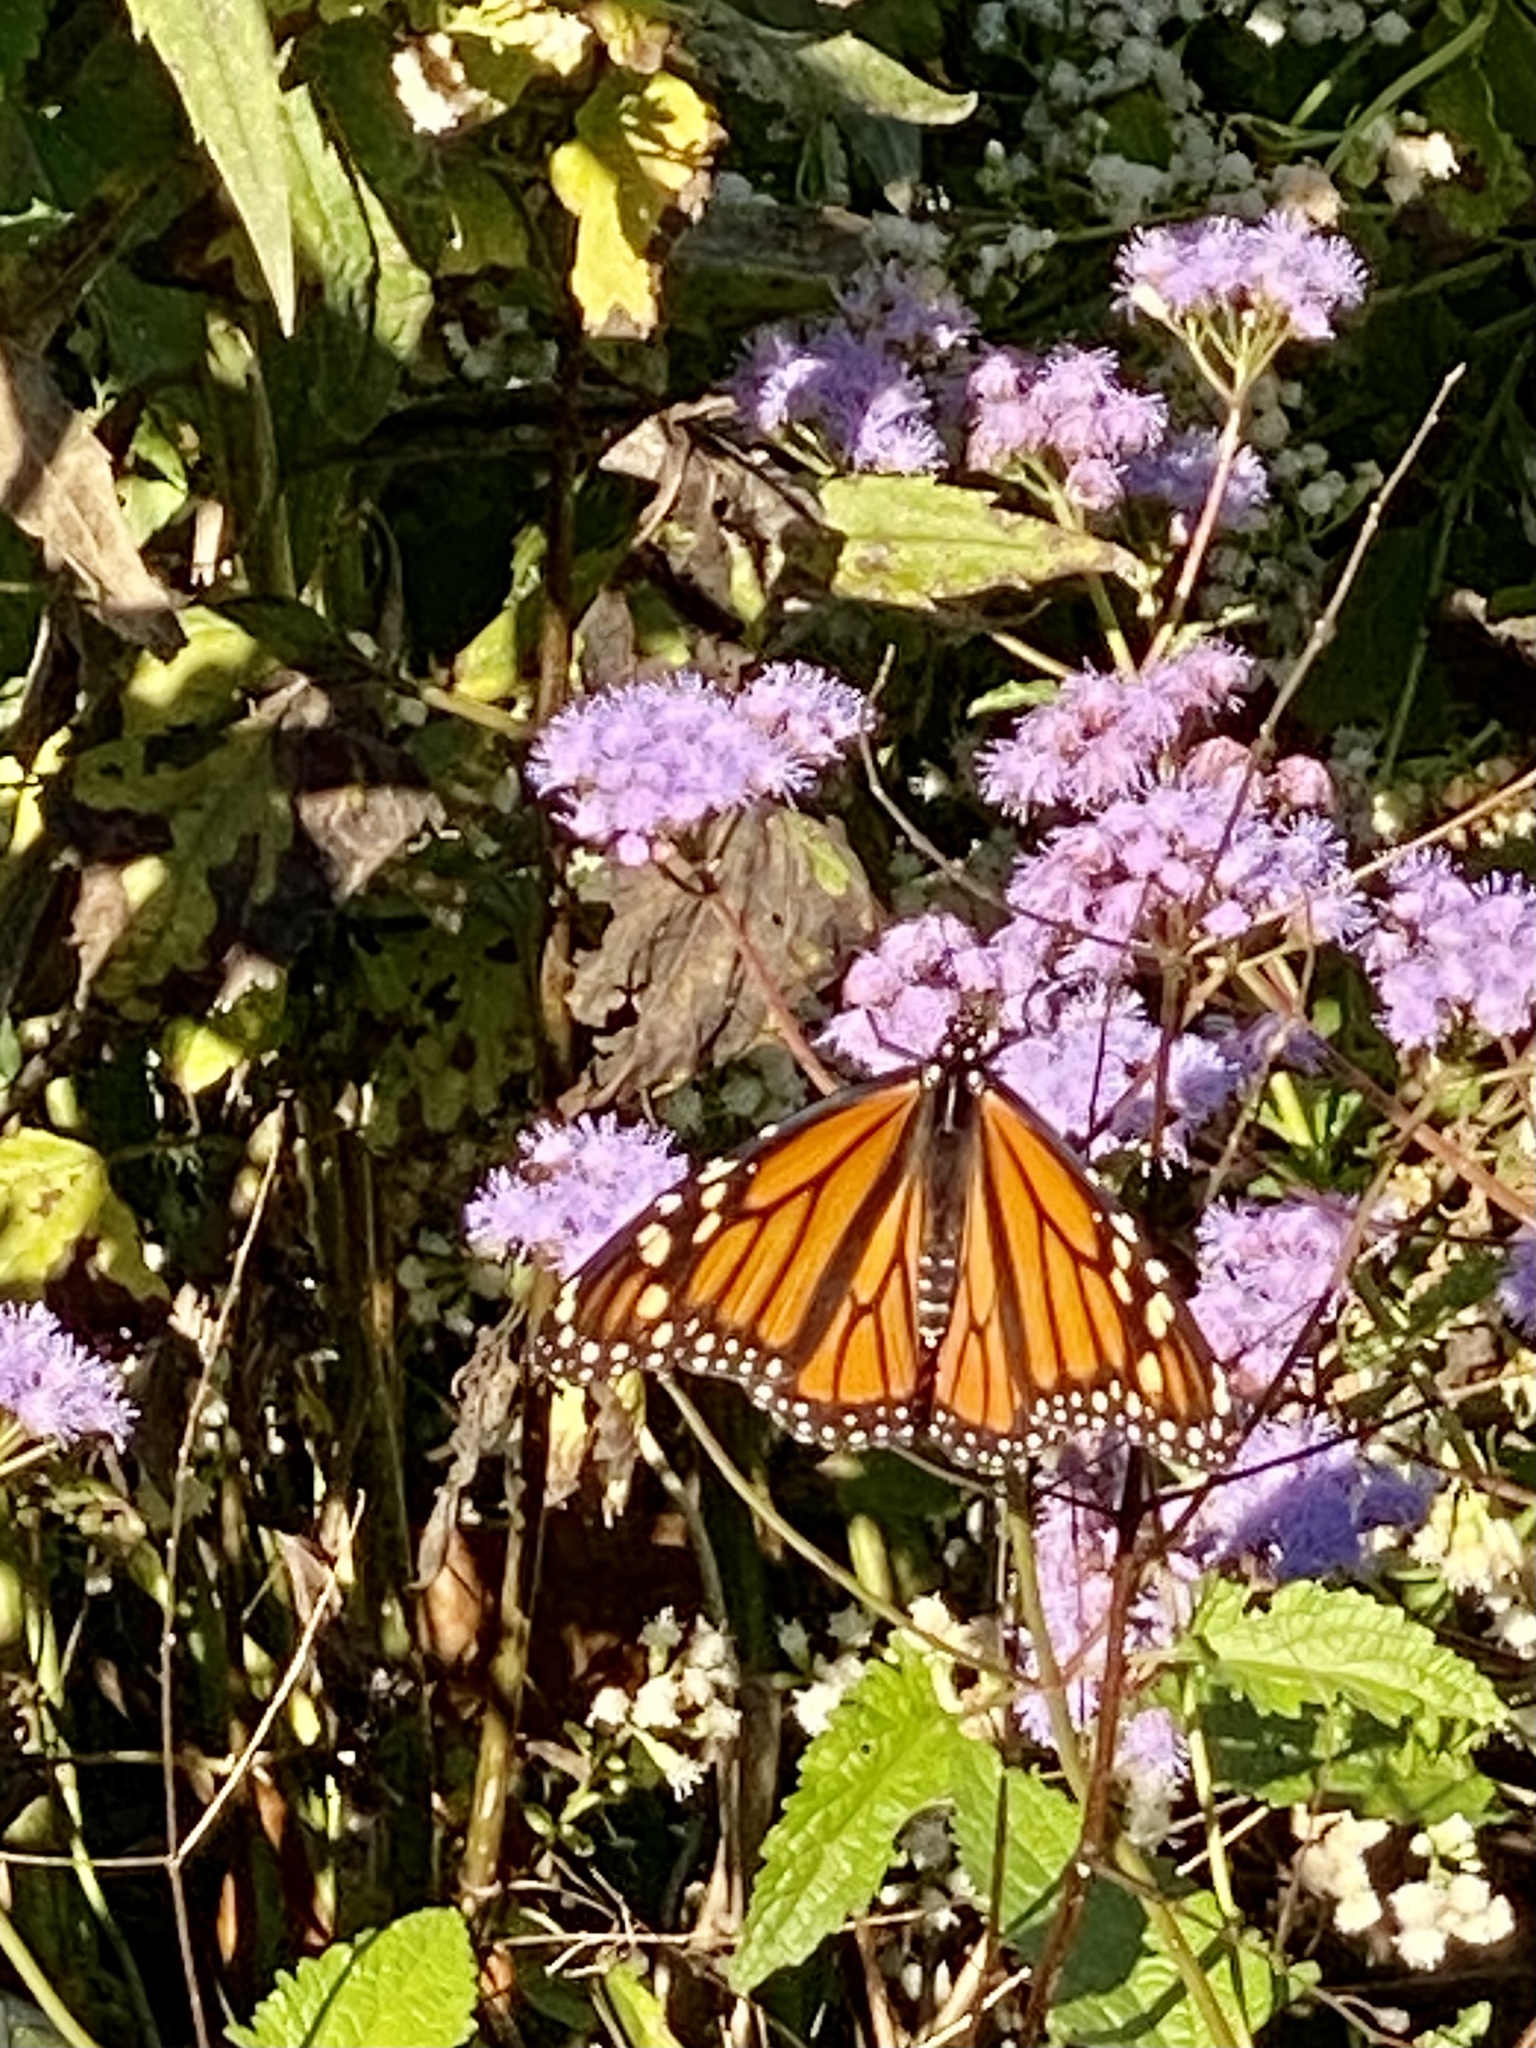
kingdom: Animalia
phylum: Arthropoda
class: Insecta
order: Lepidoptera
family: Nymphalidae
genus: Danaus
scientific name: Danaus plexippus
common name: Monarch
